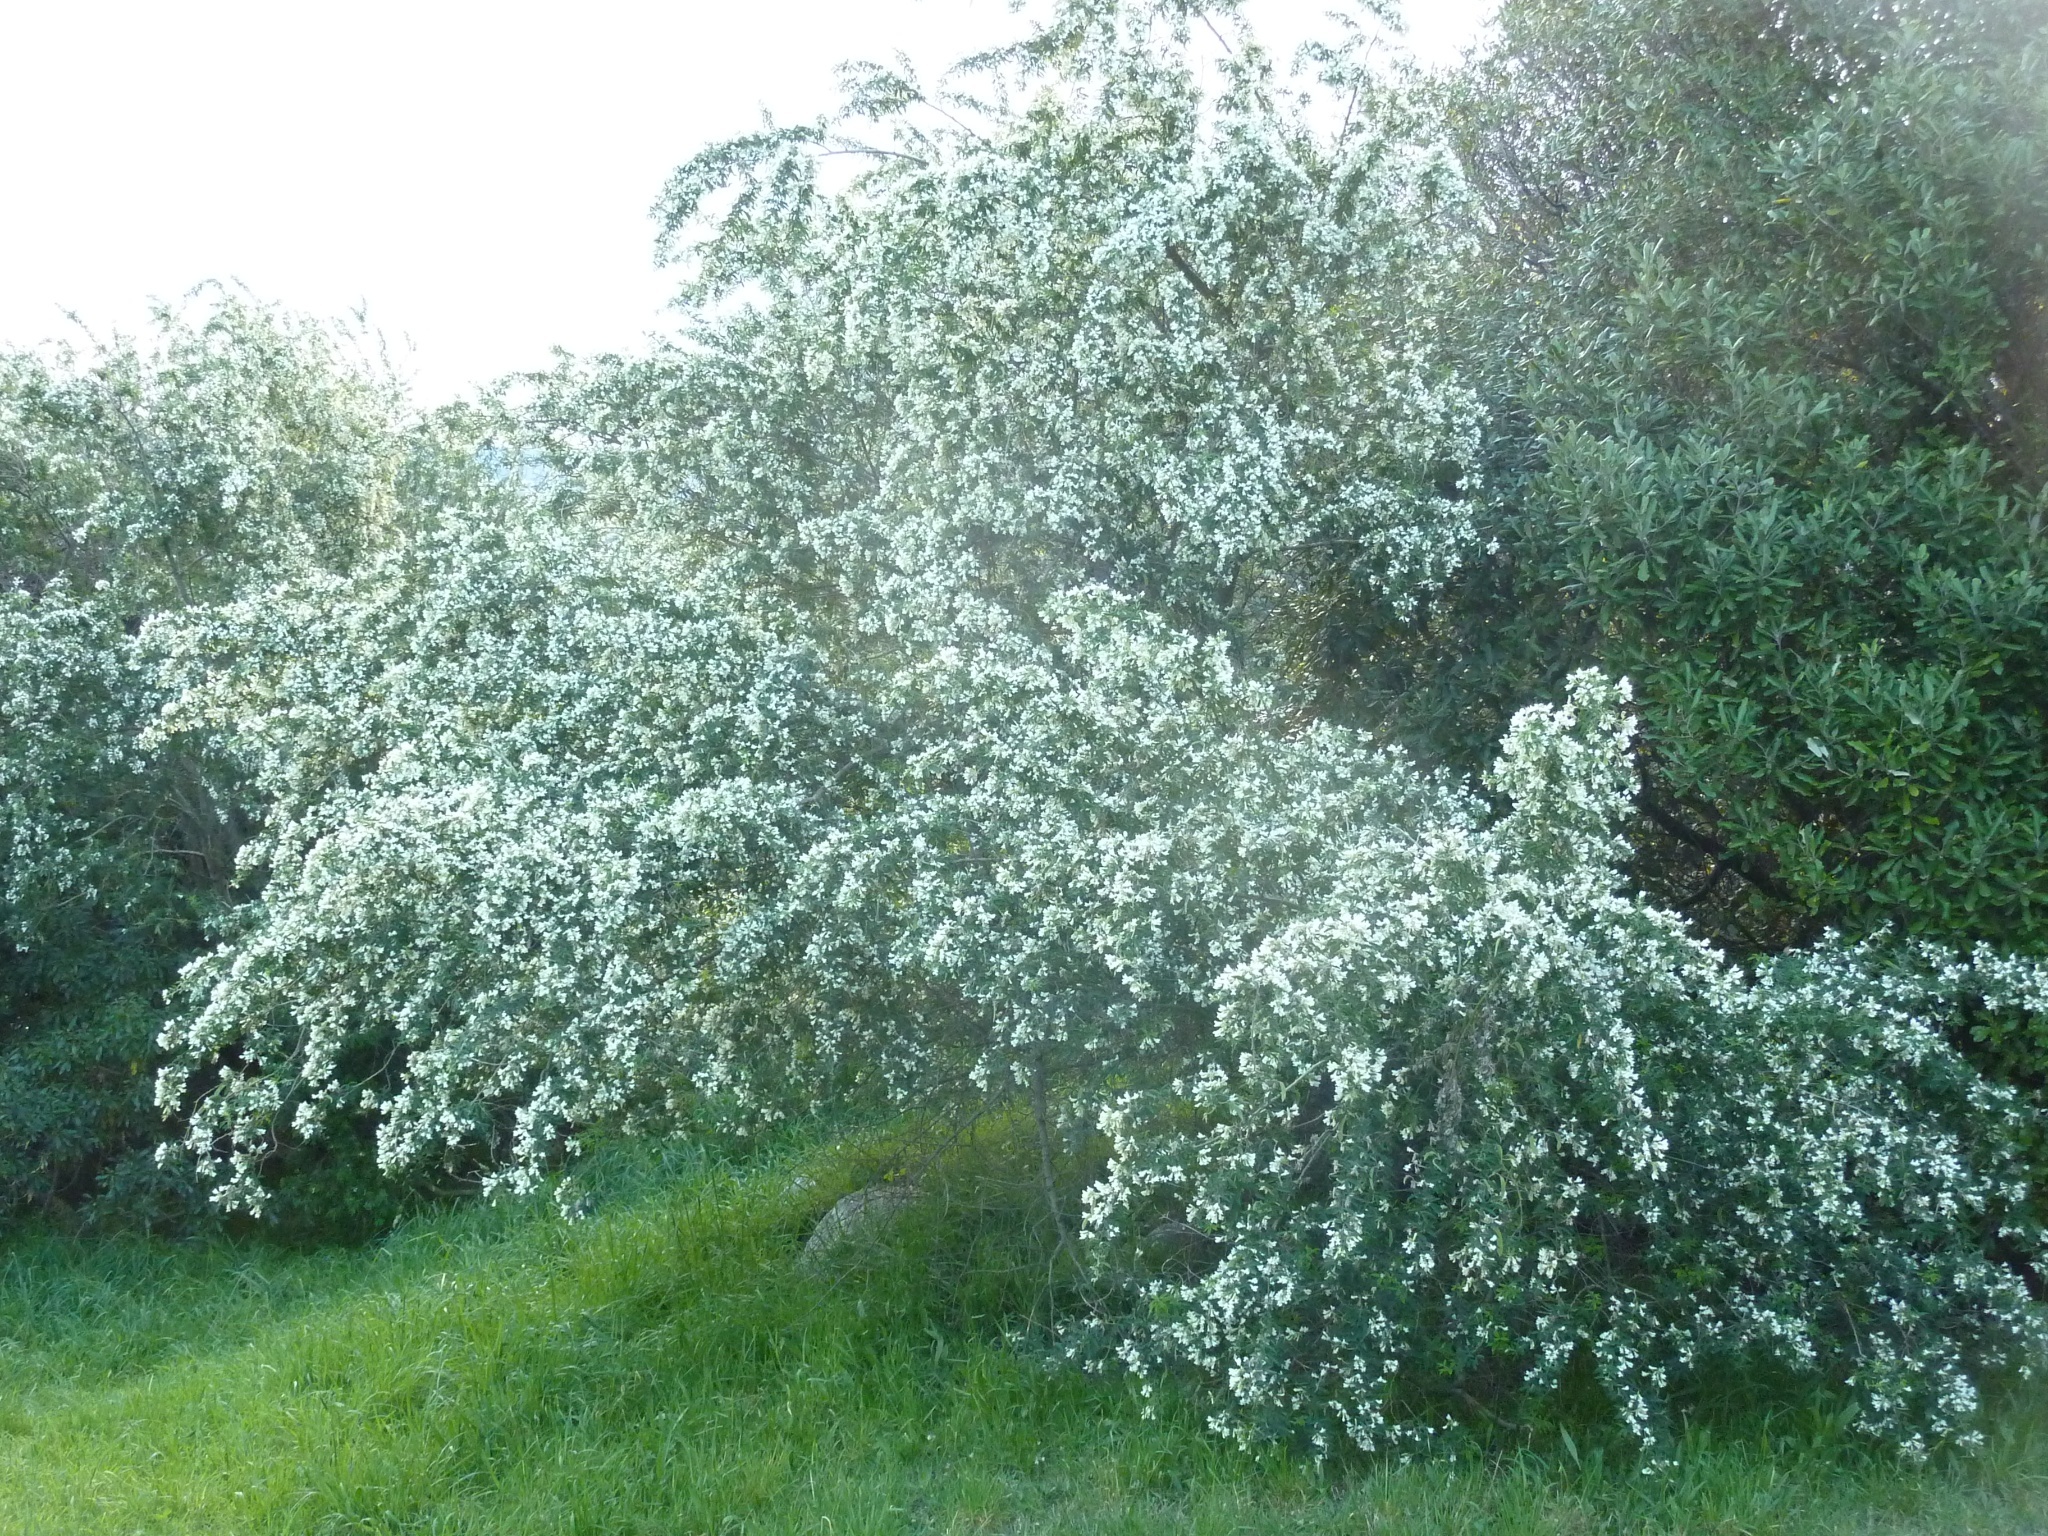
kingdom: Plantae
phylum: Tracheophyta
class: Magnoliopsida
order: Fabales
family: Fabaceae
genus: Chamaecytisus
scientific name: Chamaecytisus prolifer
